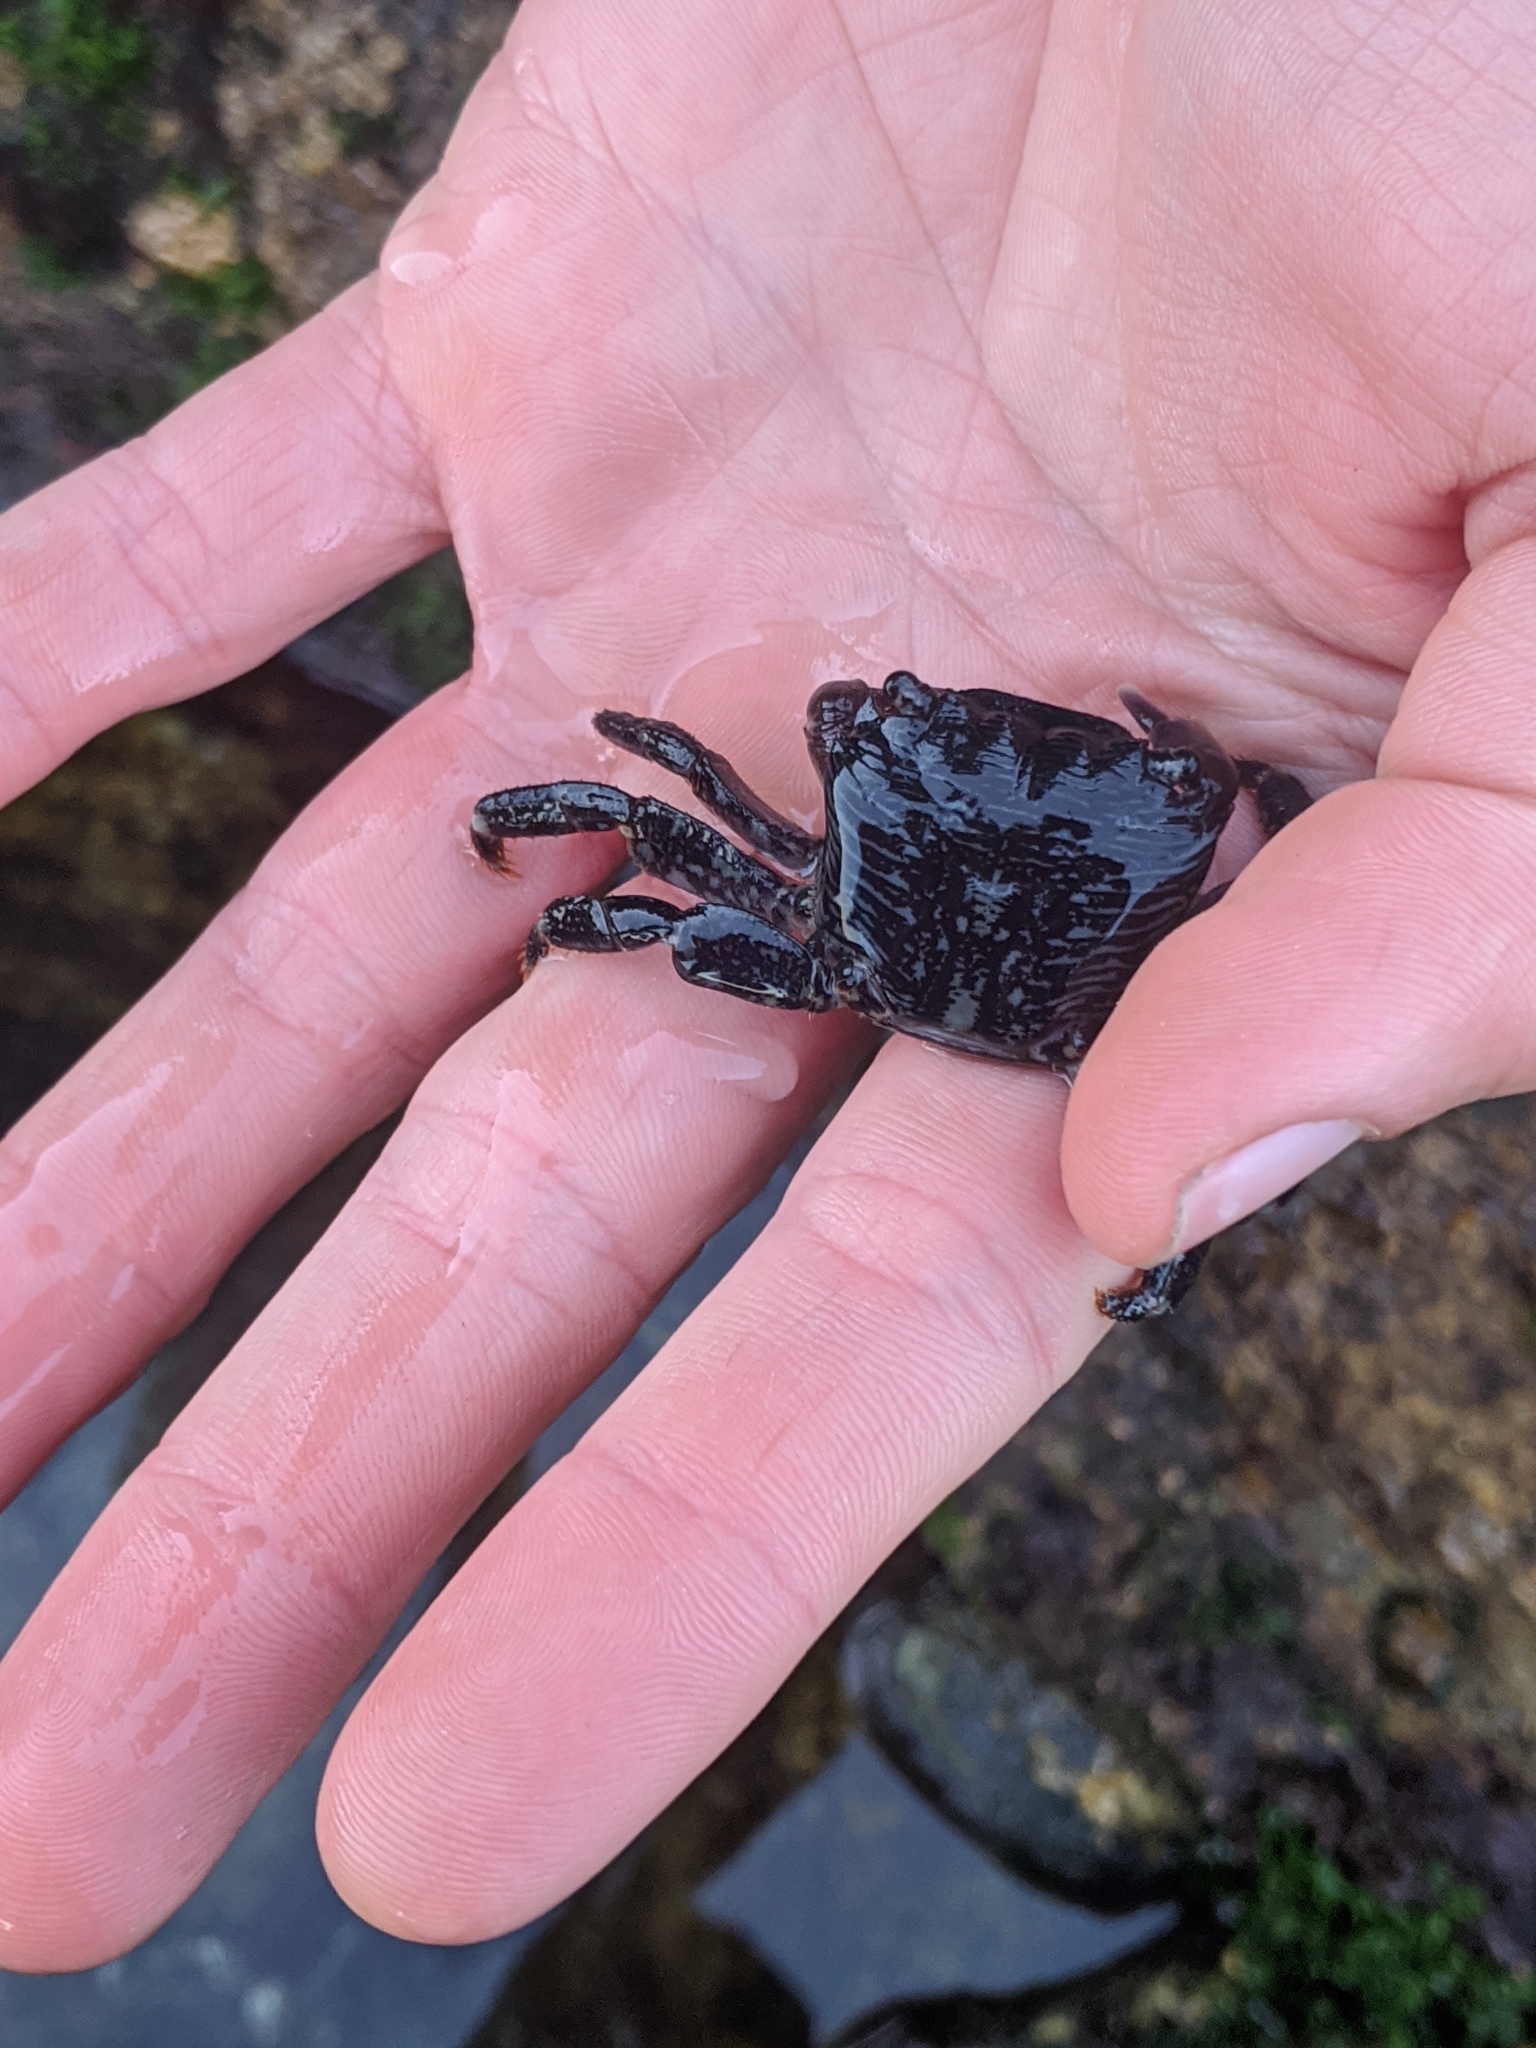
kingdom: Animalia
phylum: Arthropoda
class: Malacostraca
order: Decapoda
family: Grapsidae
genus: Pachygrapsus
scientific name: Pachygrapsus crassipes
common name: Striped shore crab
